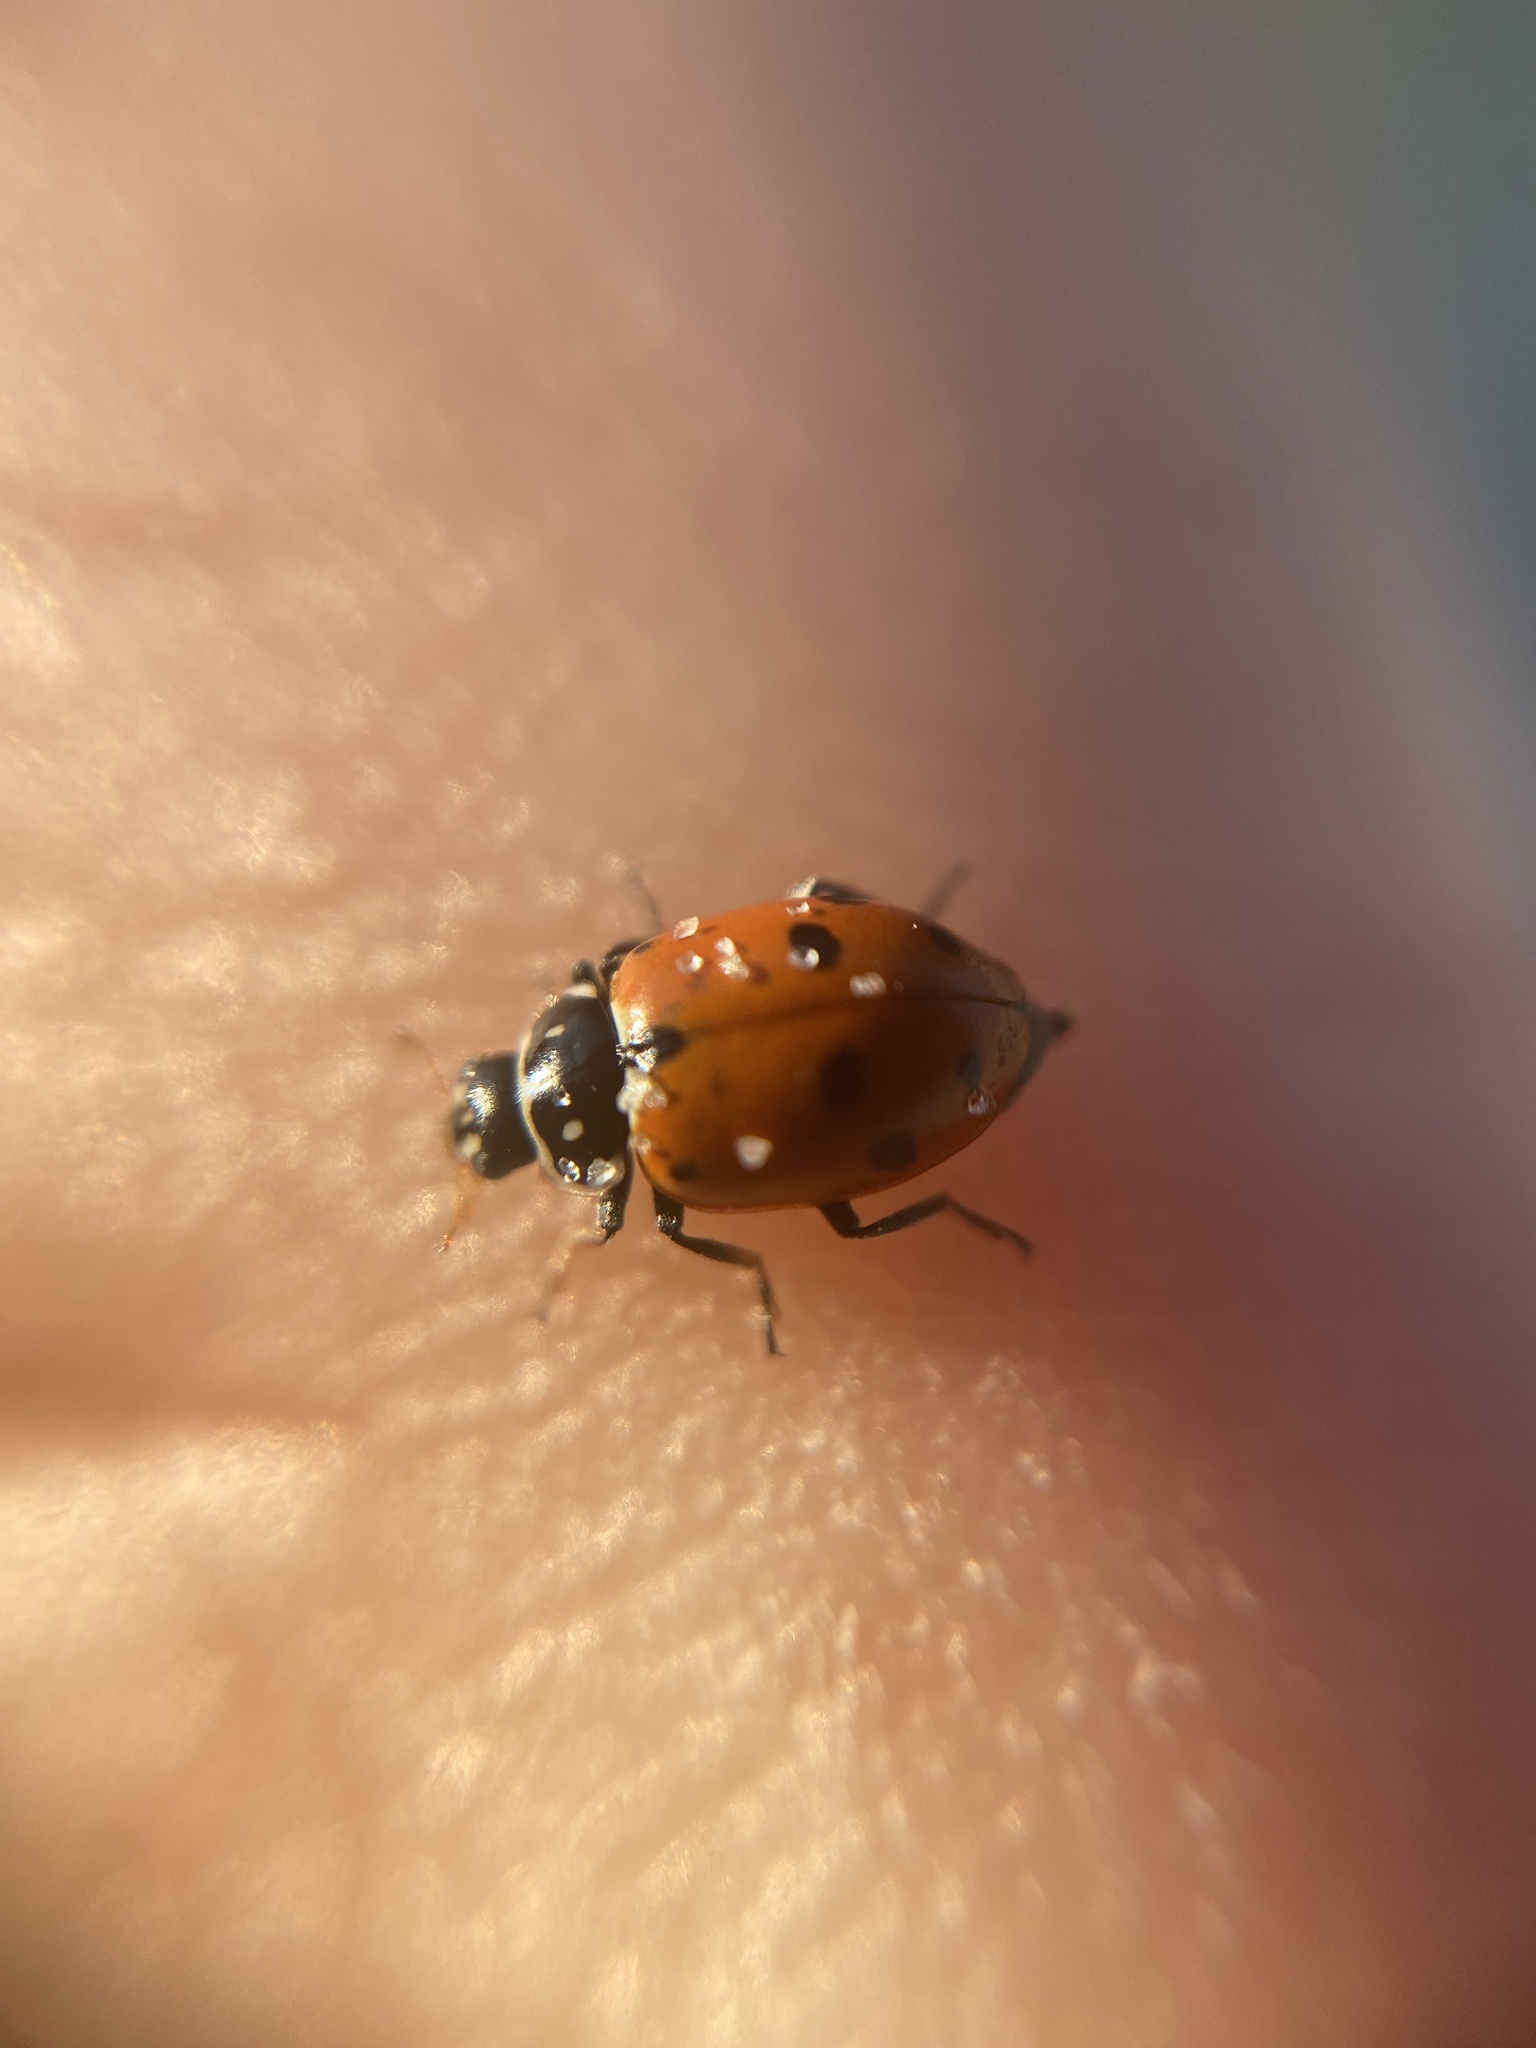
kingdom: Animalia
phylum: Arthropoda
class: Insecta
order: Coleoptera
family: Coccinellidae
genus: Hippodamia
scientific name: Hippodamia variegata
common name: Ladybird beetle
